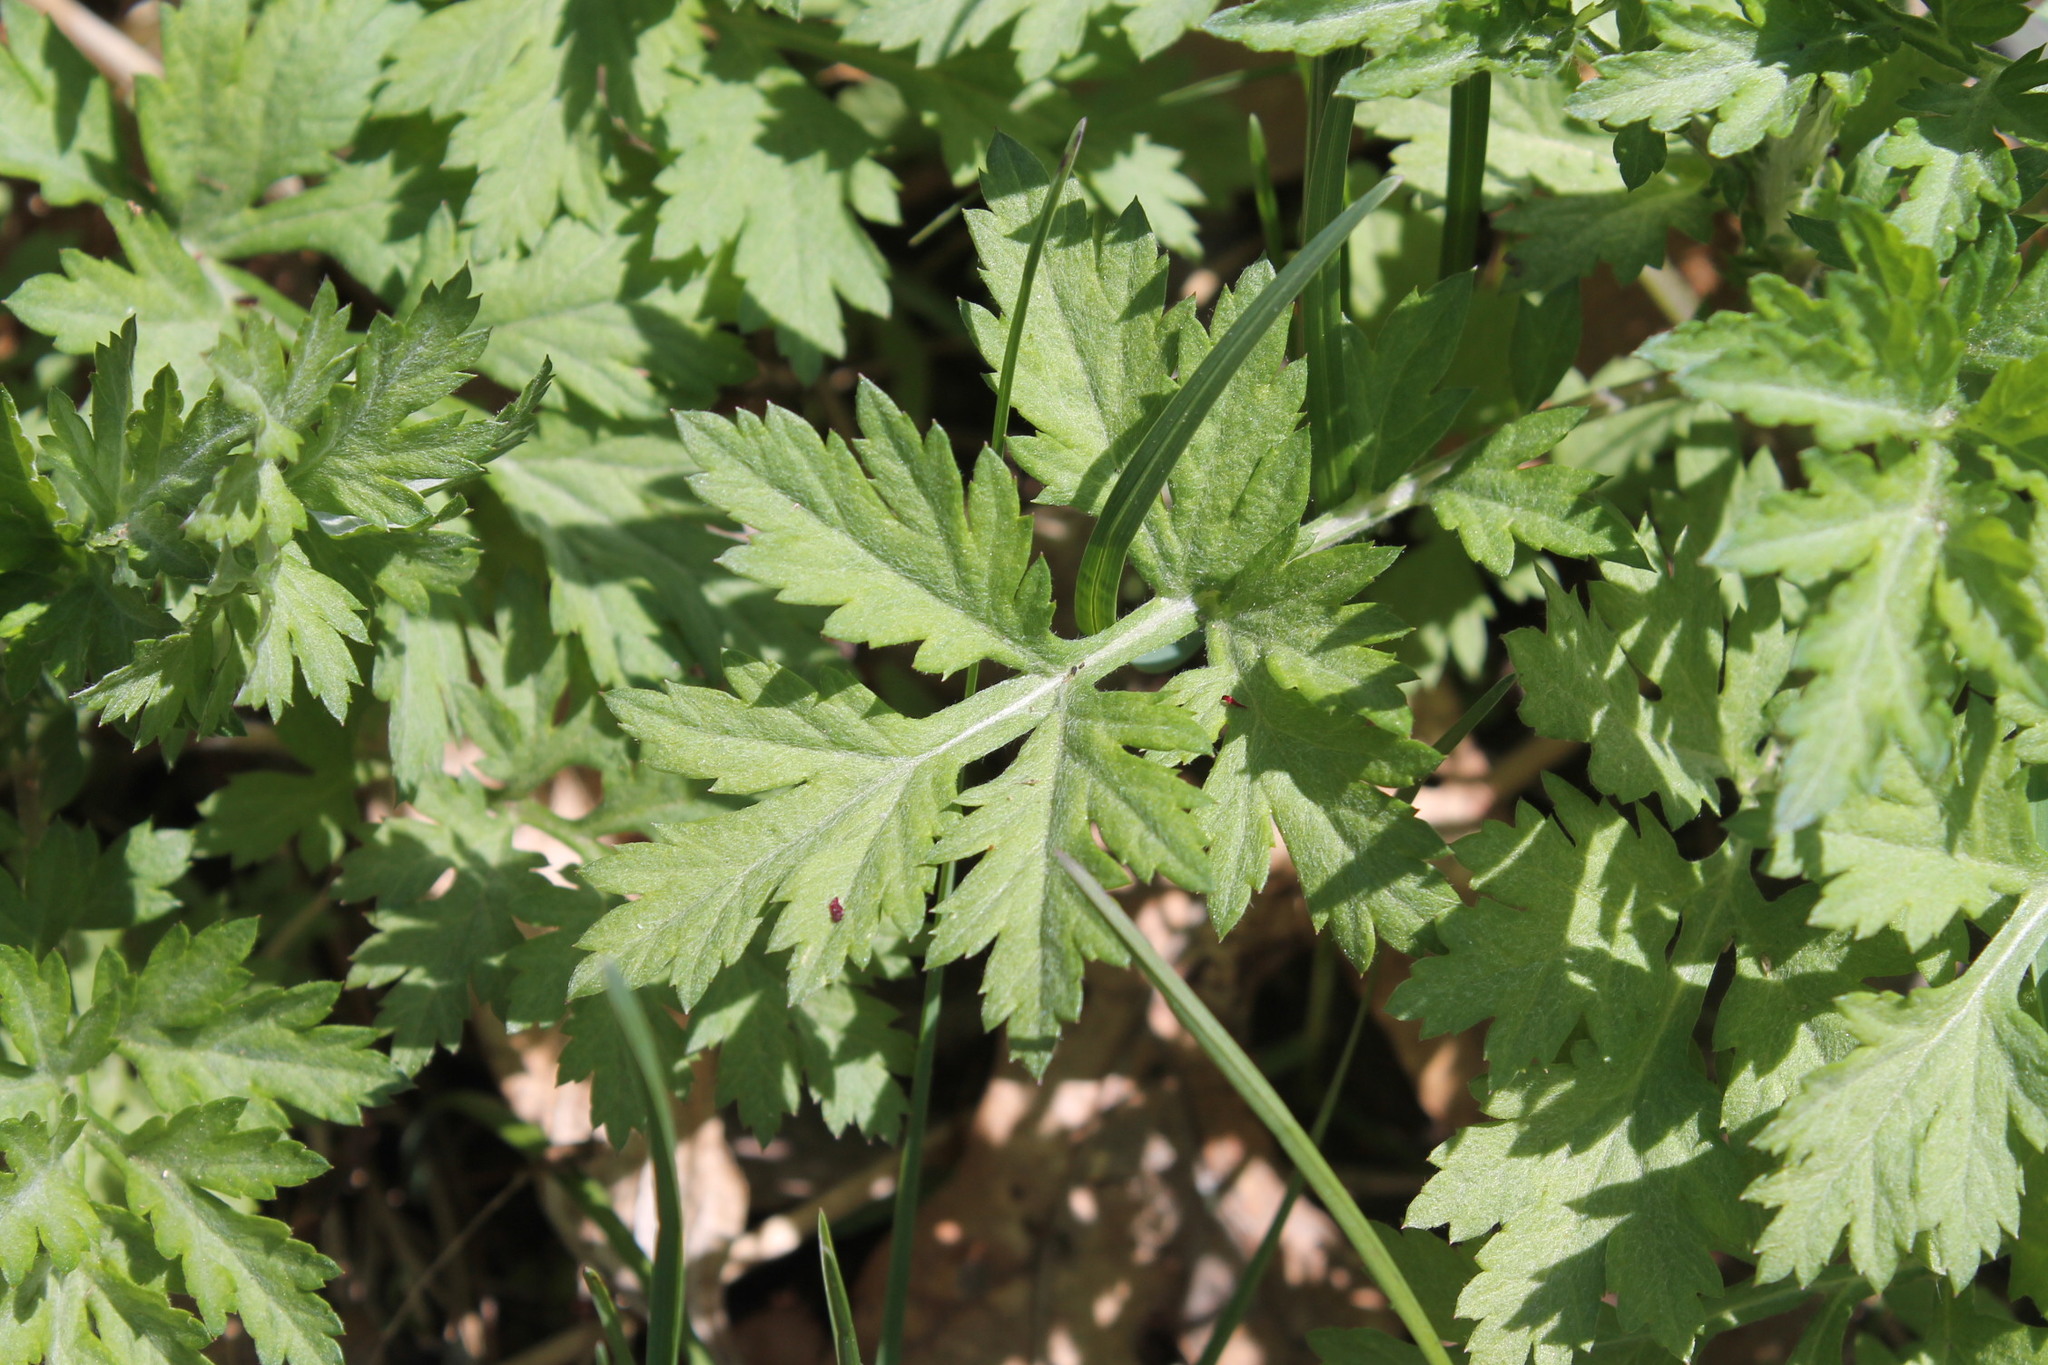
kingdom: Plantae
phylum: Tracheophyta
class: Magnoliopsida
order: Asterales
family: Asteraceae
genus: Artemisia
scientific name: Artemisia vulgaris
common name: Mugwort
